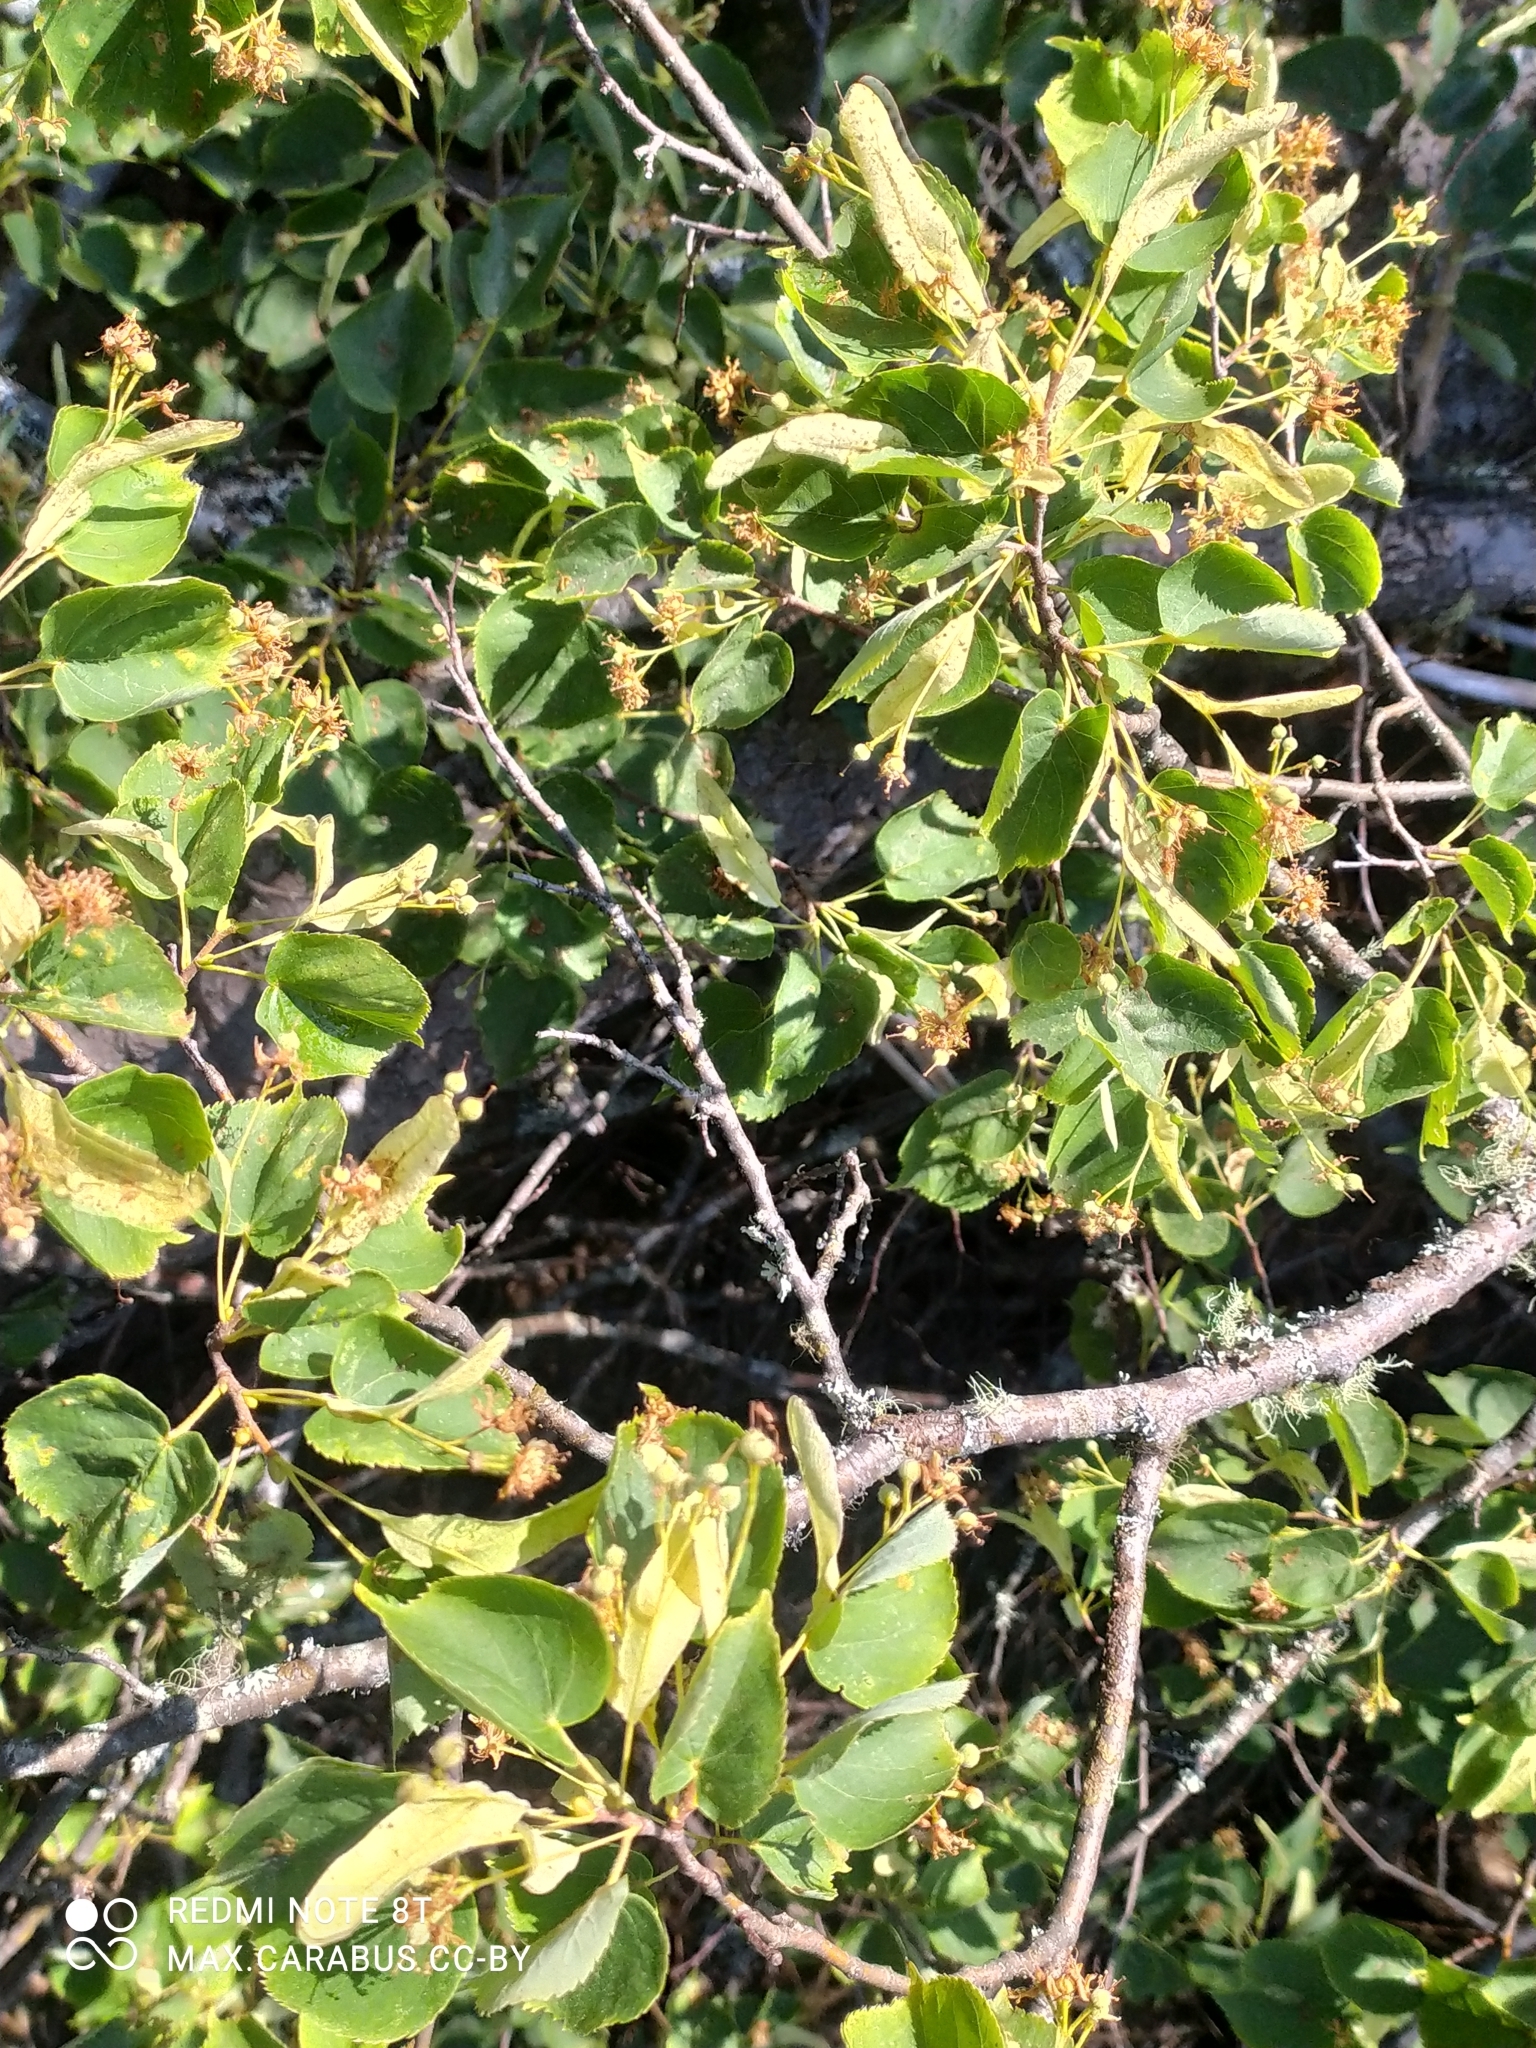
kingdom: Plantae
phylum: Tracheophyta
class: Magnoliopsida
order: Malvales
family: Malvaceae
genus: Tilia
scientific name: Tilia cordata
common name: Small-leaved lime
